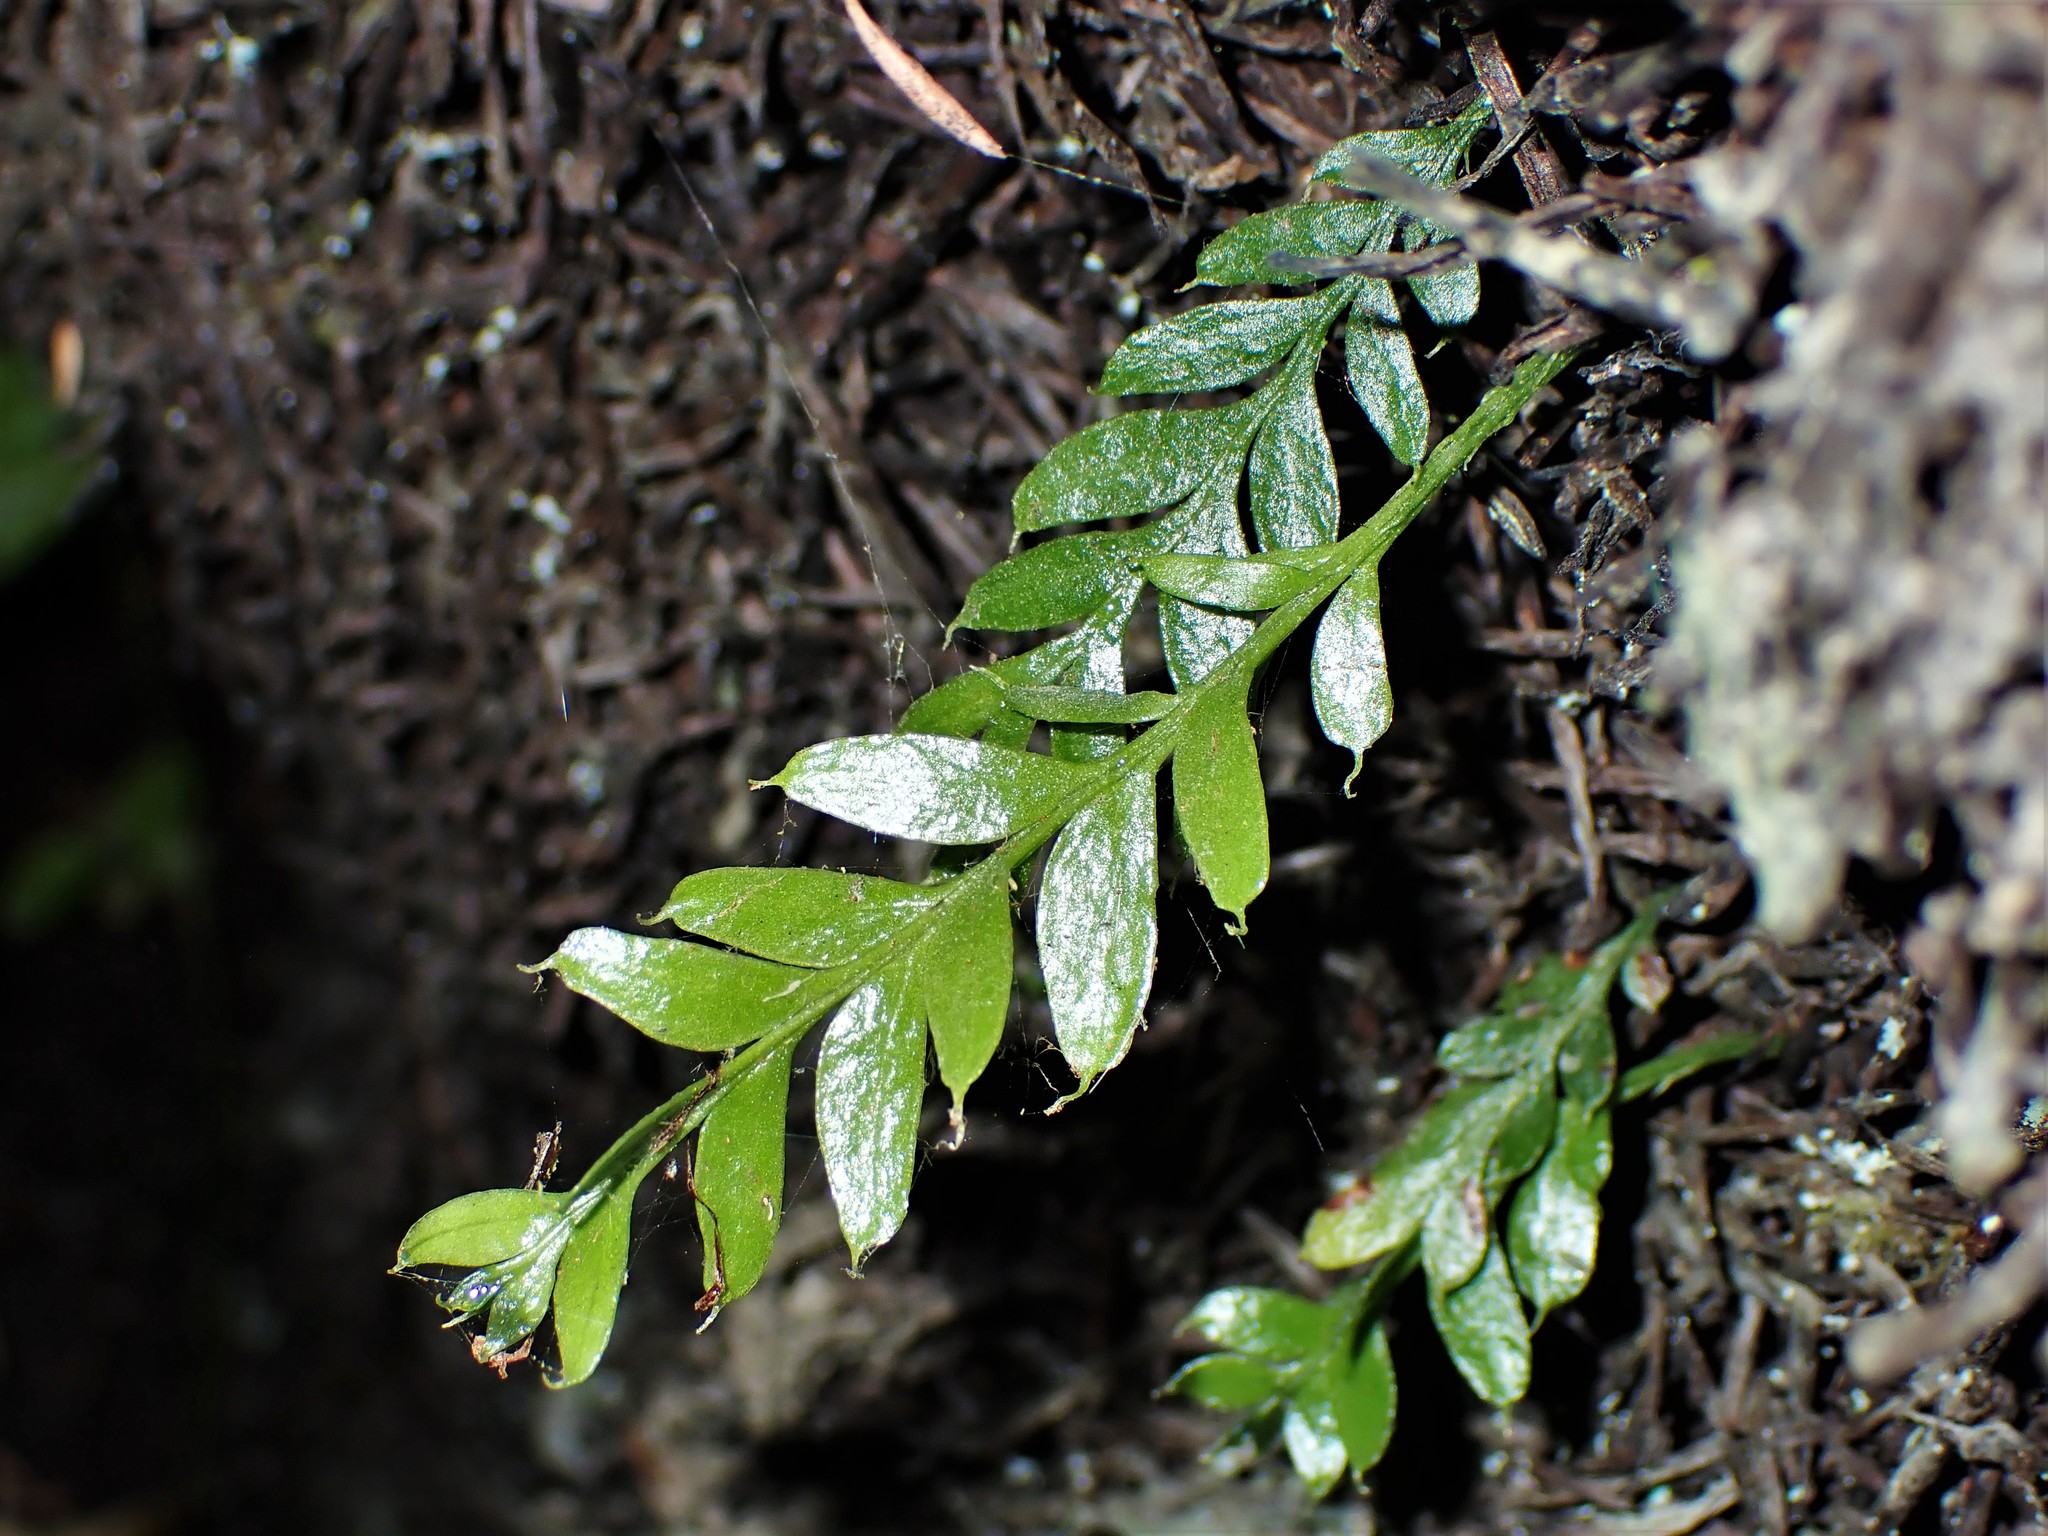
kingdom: Plantae
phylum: Tracheophyta
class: Polypodiopsida
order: Psilotales
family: Psilotaceae
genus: Tmesipteris
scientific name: Tmesipteris lanceolata
